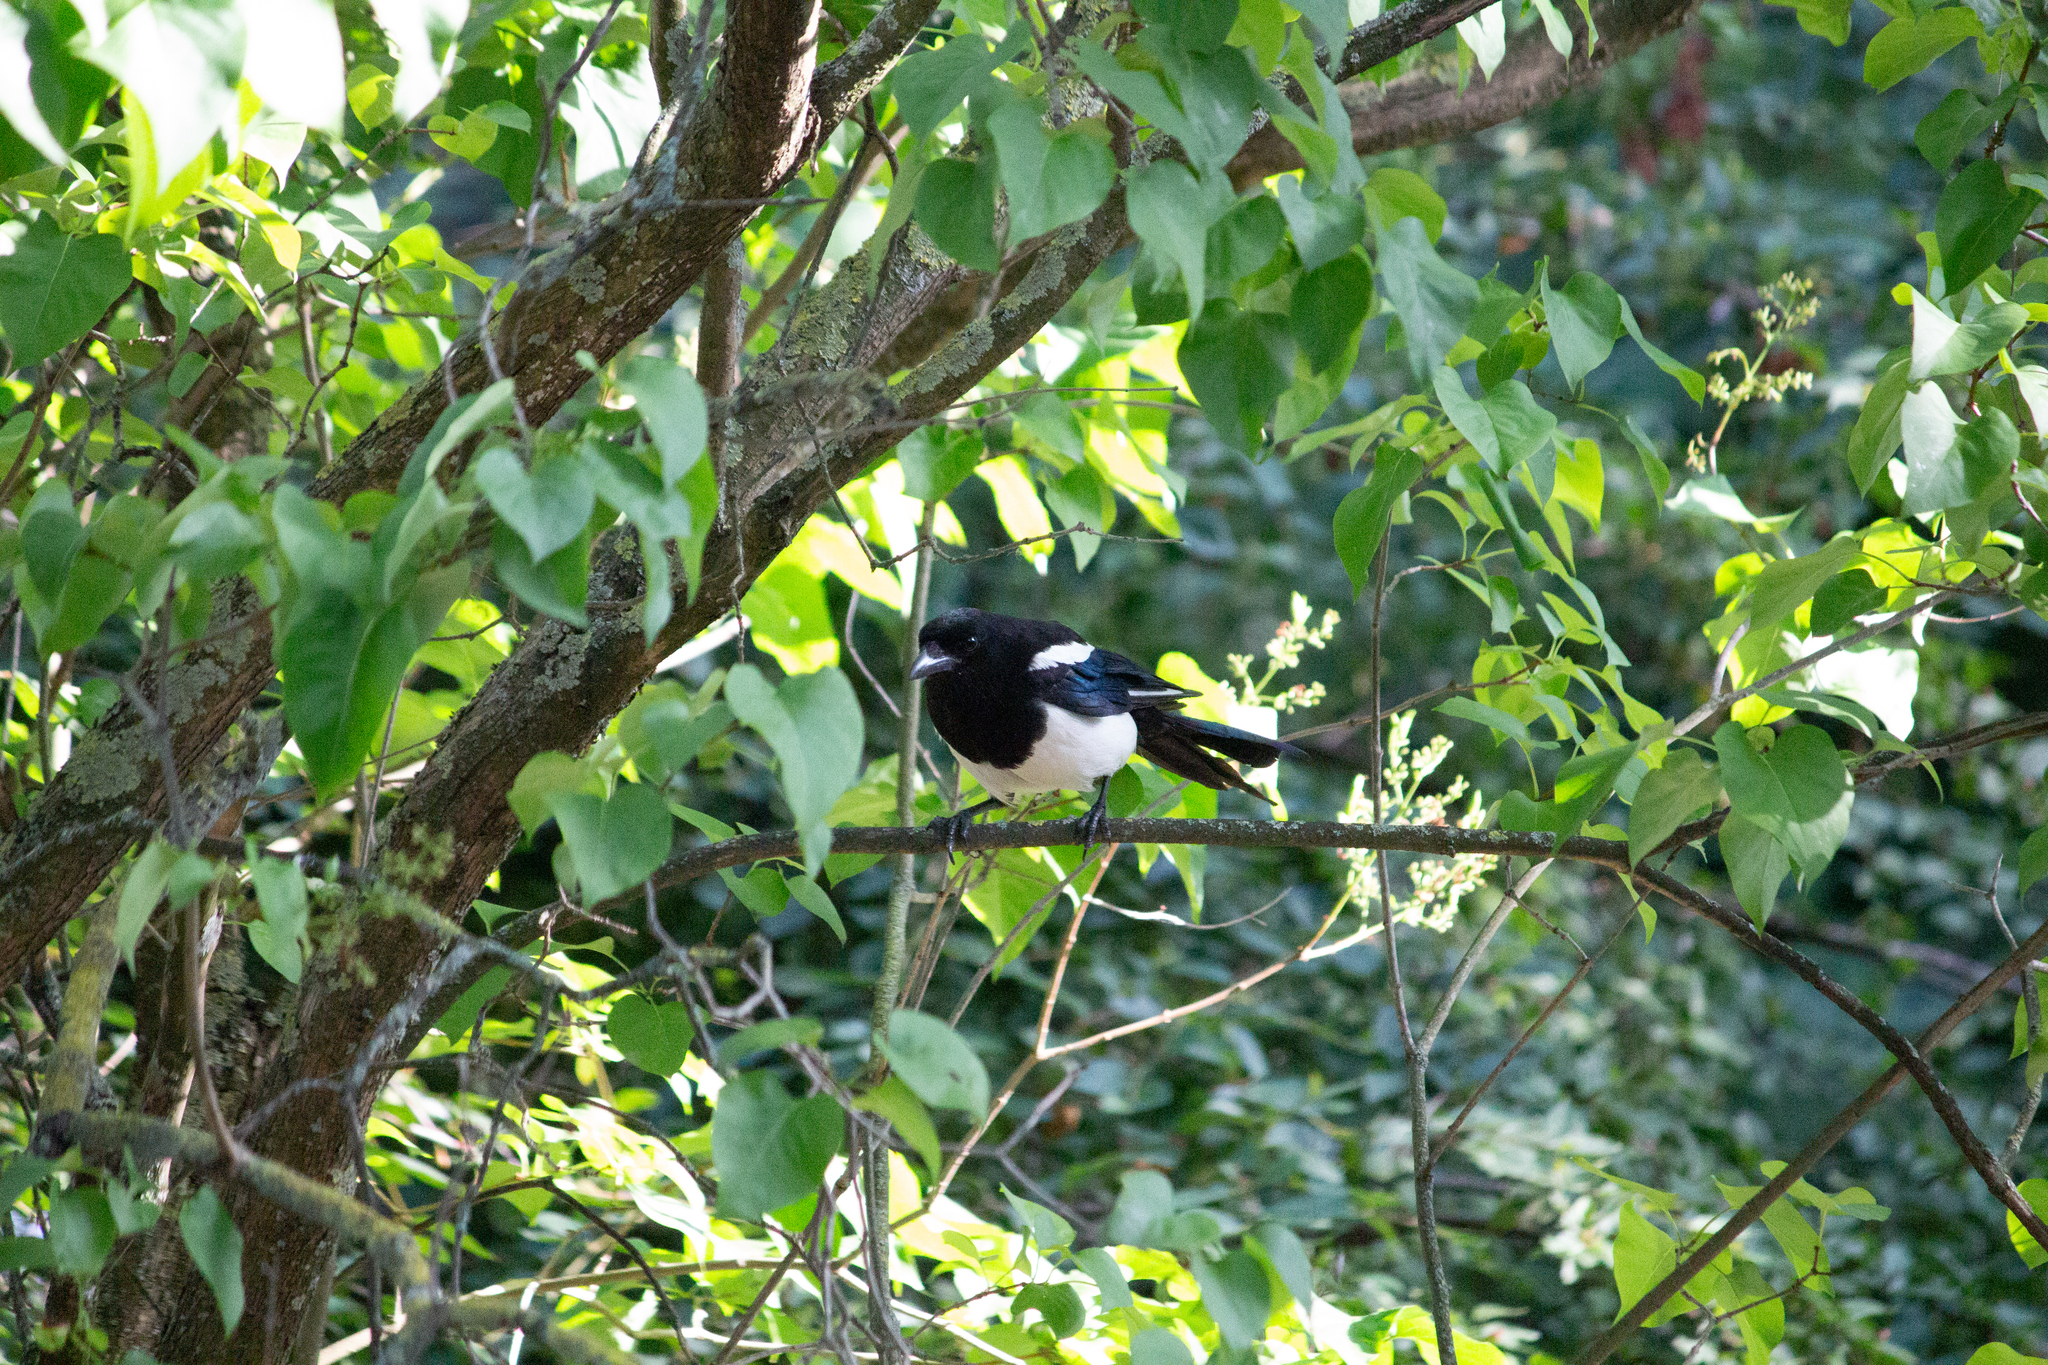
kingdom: Animalia
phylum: Chordata
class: Aves
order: Passeriformes
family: Corvidae
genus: Pica
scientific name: Pica pica
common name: Eurasian magpie
